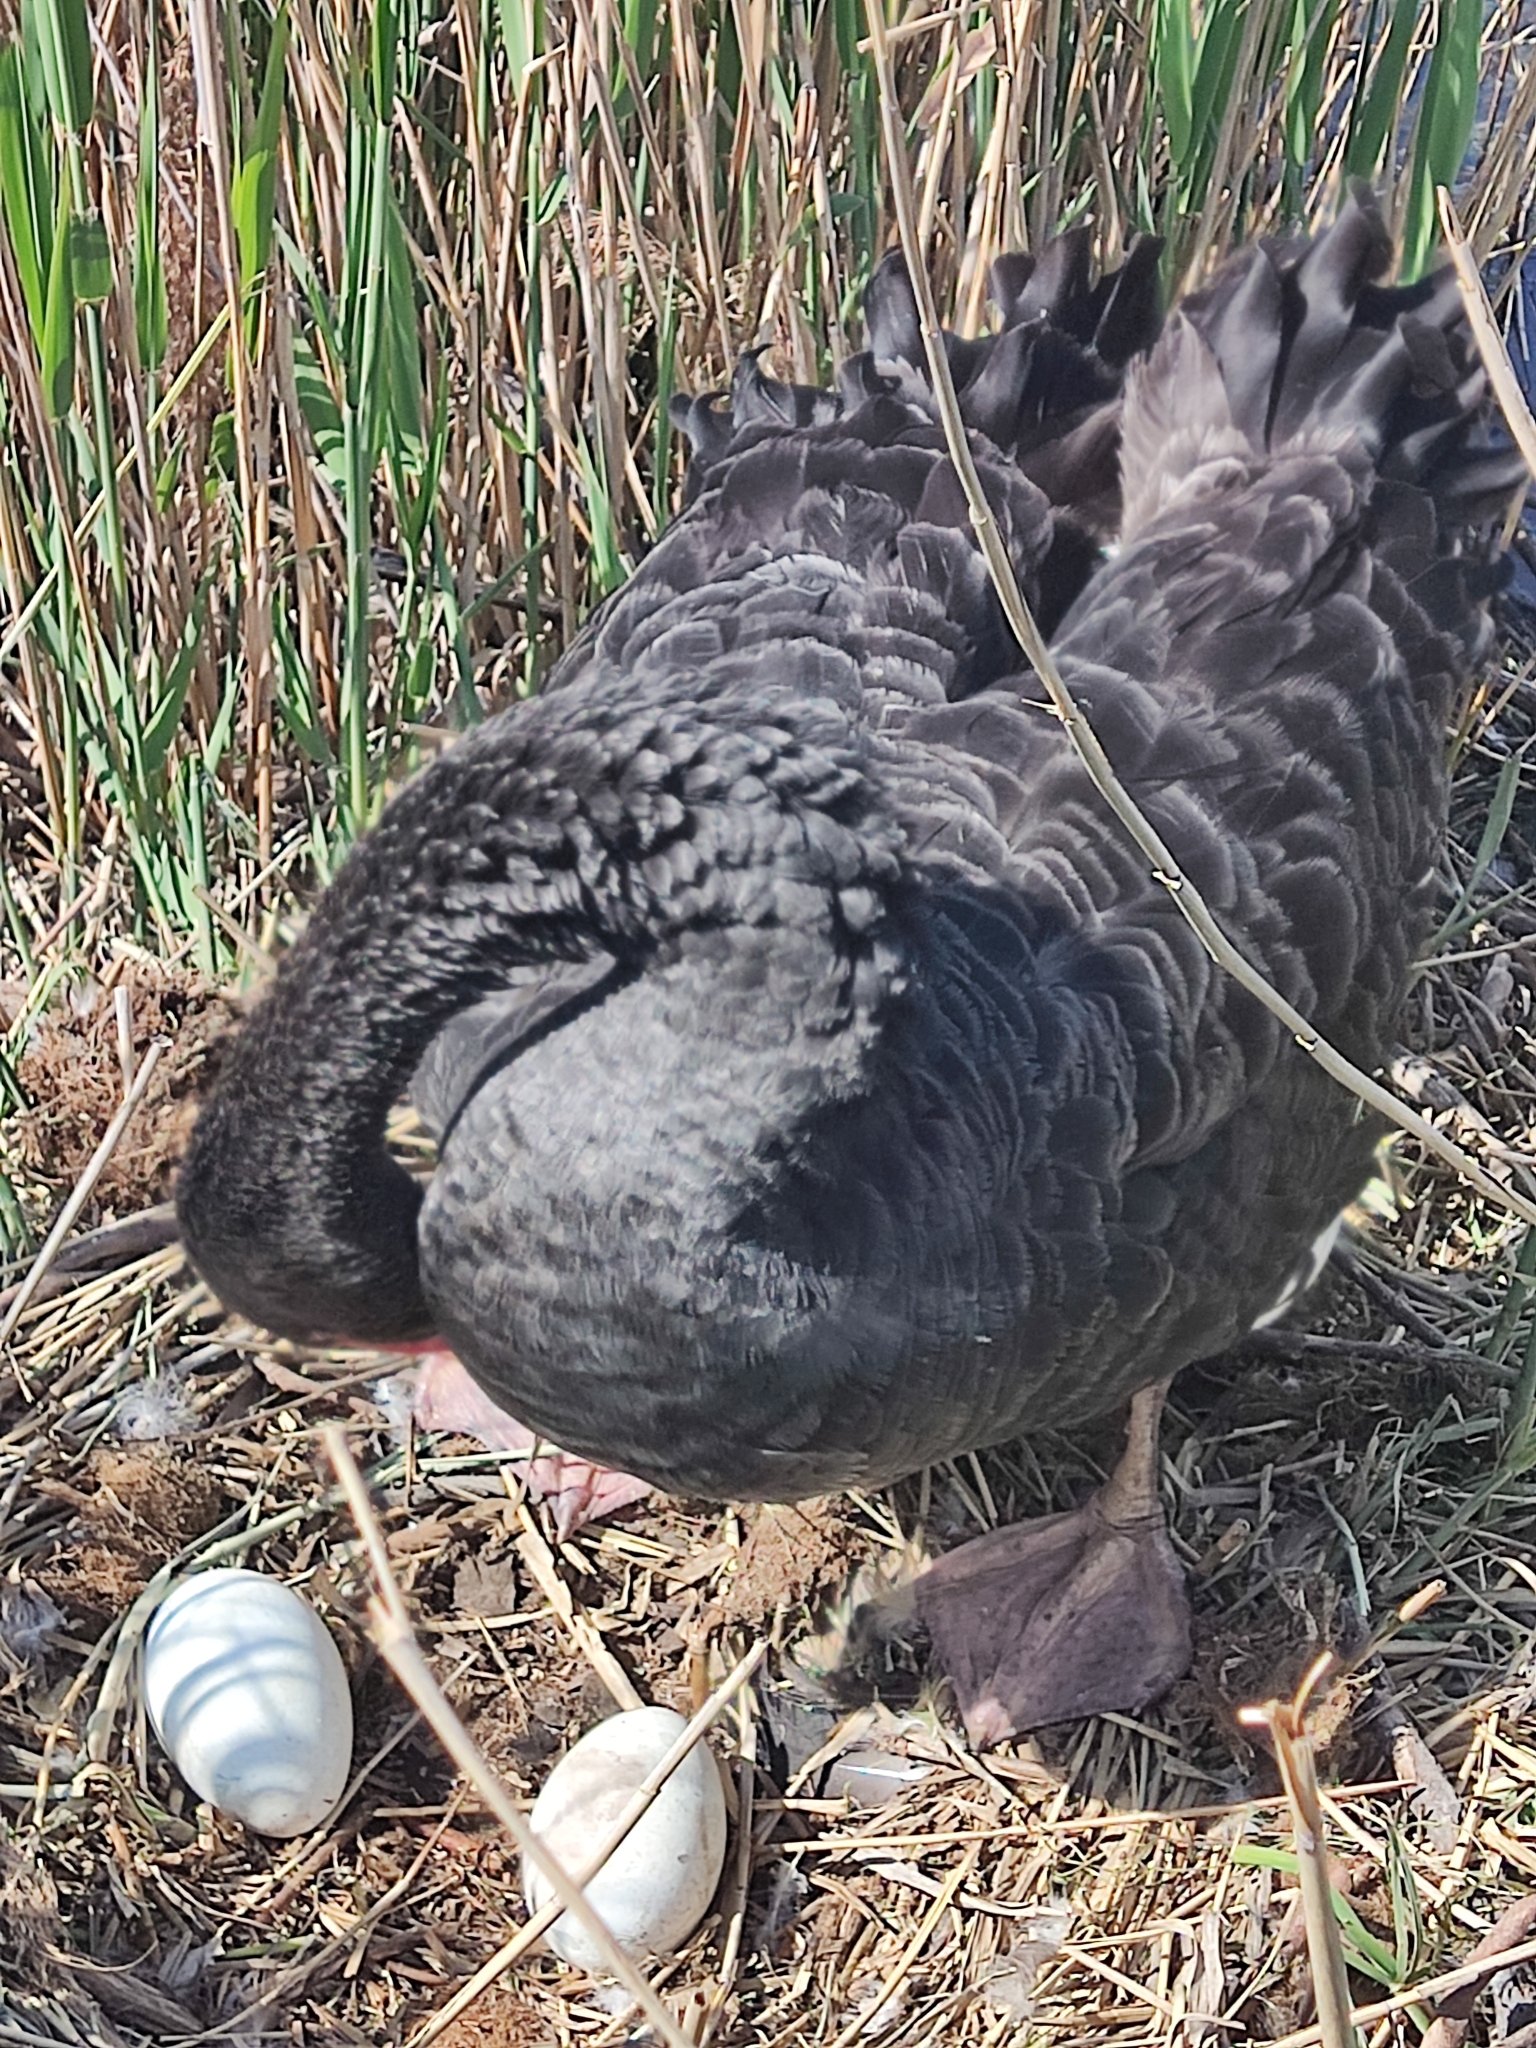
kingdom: Animalia
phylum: Chordata
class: Aves
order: Anseriformes
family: Anatidae
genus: Cygnus
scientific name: Cygnus atratus
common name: Black swan
